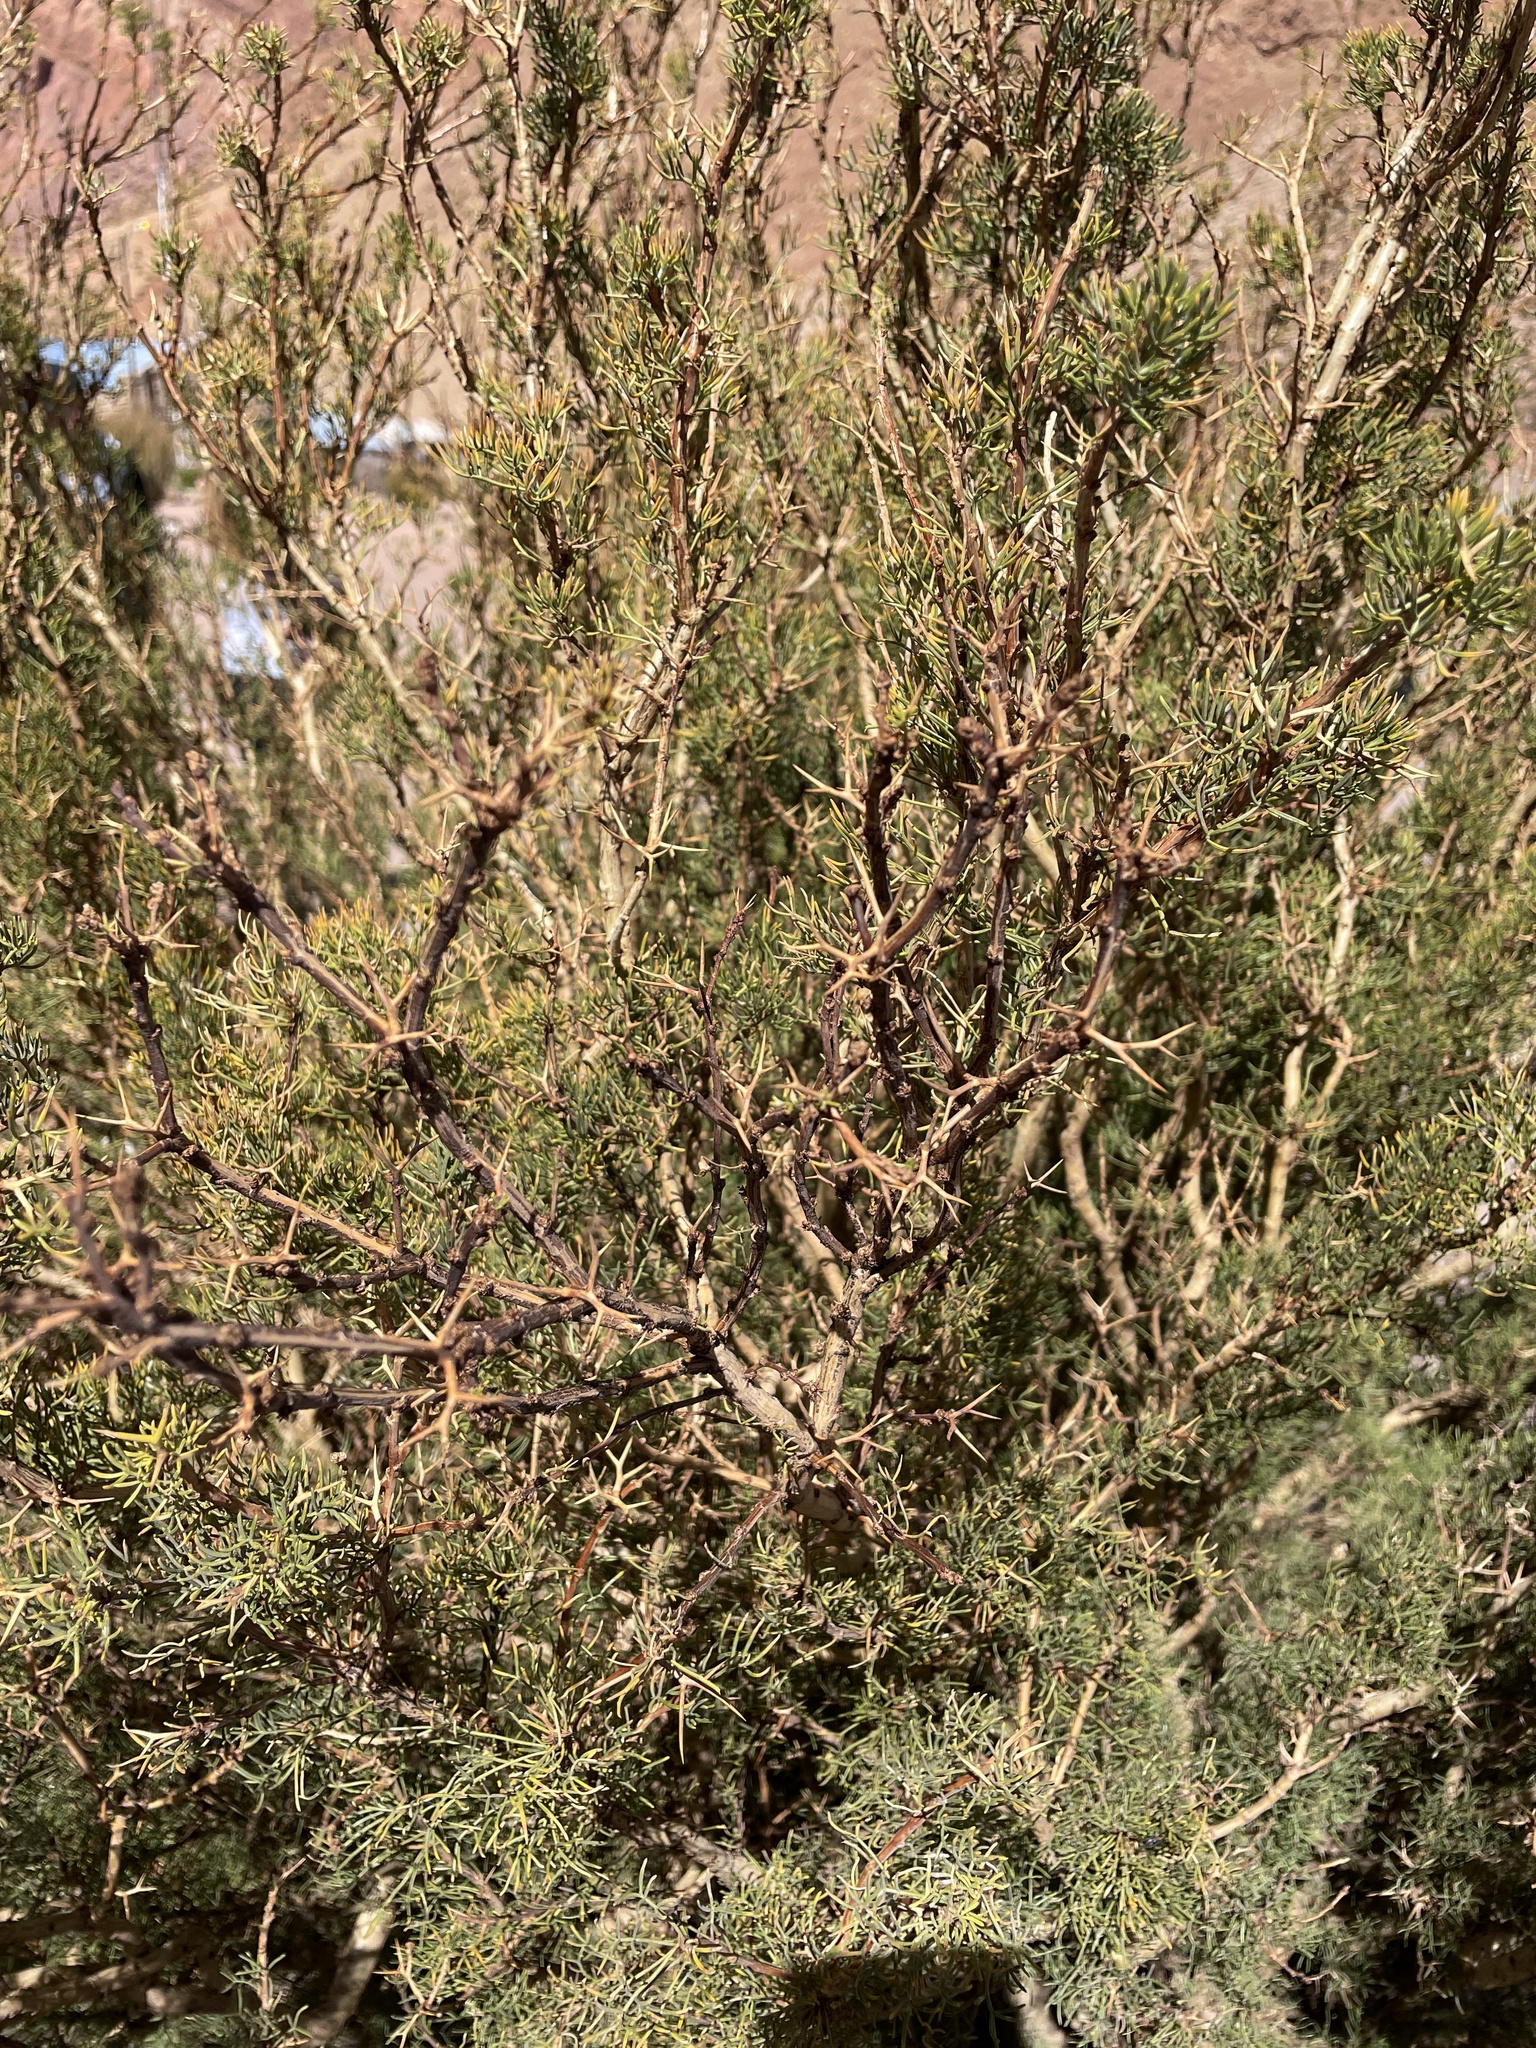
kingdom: Plantae
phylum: Tracheophyta
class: Magnoliopsida
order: Fabales
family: Fabaceae
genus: Adesmia
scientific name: Adesmia pinifolia
